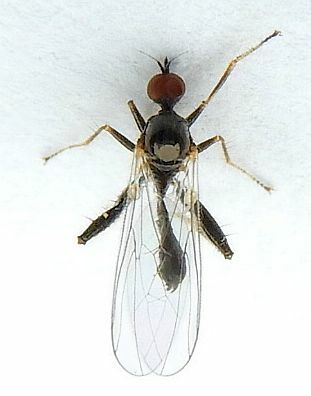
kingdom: Animalia
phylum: Arthropoda
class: Insecta
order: Diptera
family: Hybotidae
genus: Hybos
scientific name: Hybos reversus
